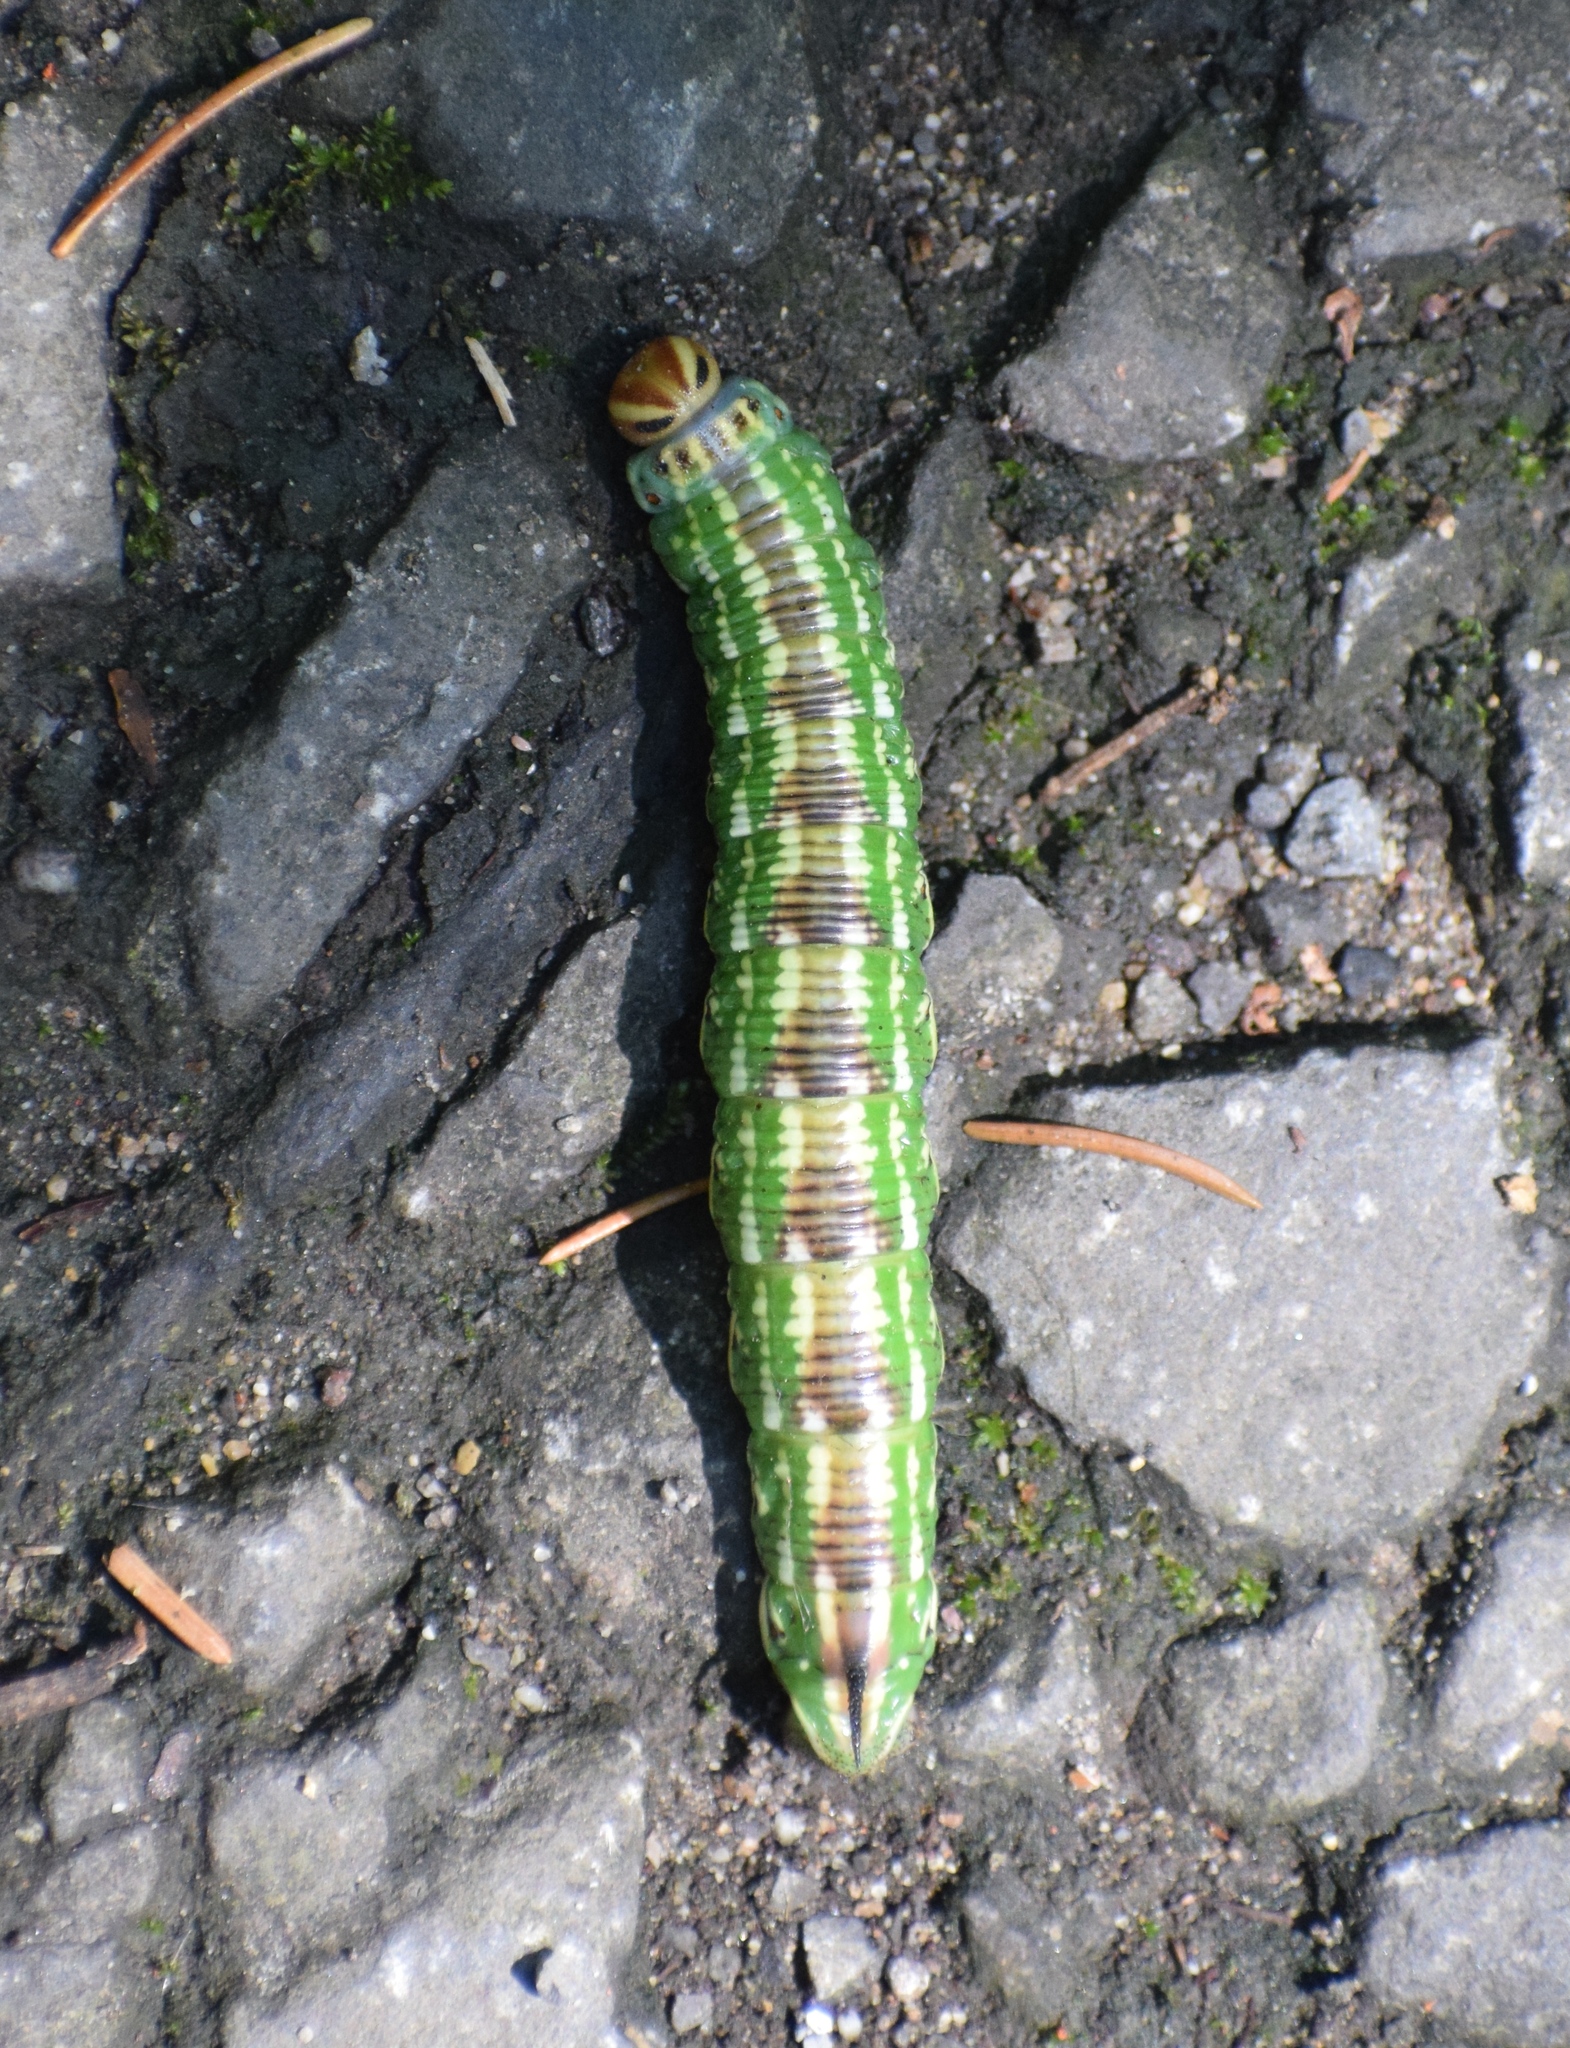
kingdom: Animalia
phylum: Arthropoda
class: Insecta
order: Lepidoptera
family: Sphingidae
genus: Sphinx
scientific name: Sphinx pinastri
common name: Pine hawk-moth
